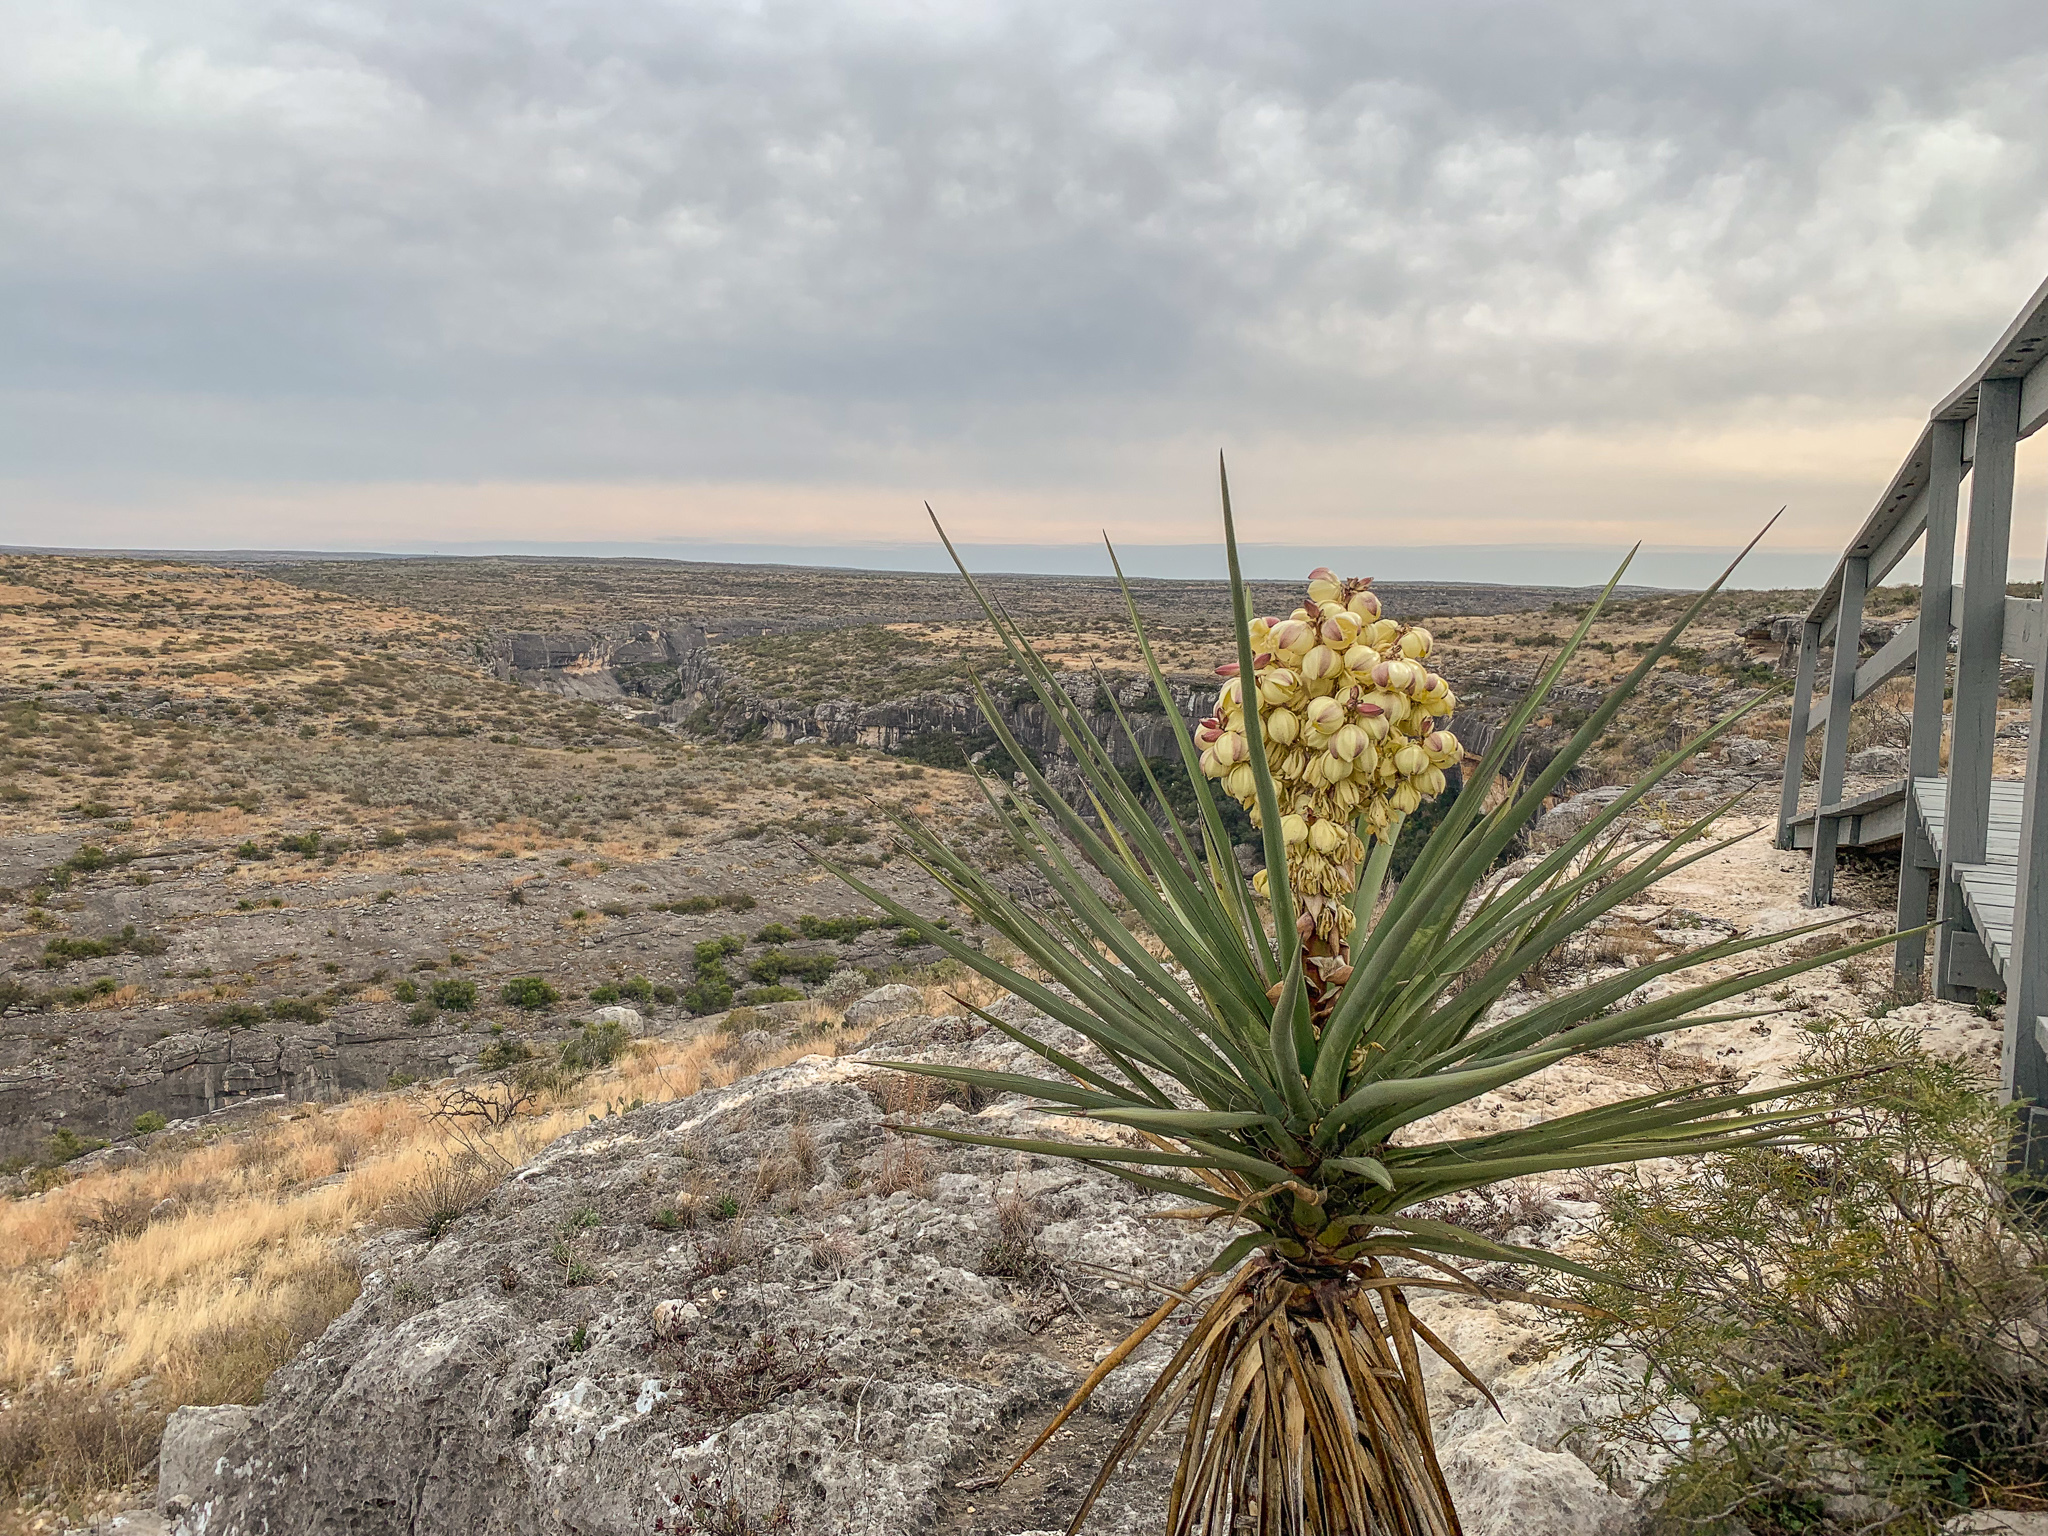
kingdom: Plantae
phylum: Tracheophyta
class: Liliopsida
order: Asparagales
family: Asparagaceae
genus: Yucca
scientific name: Yucca treculiana
